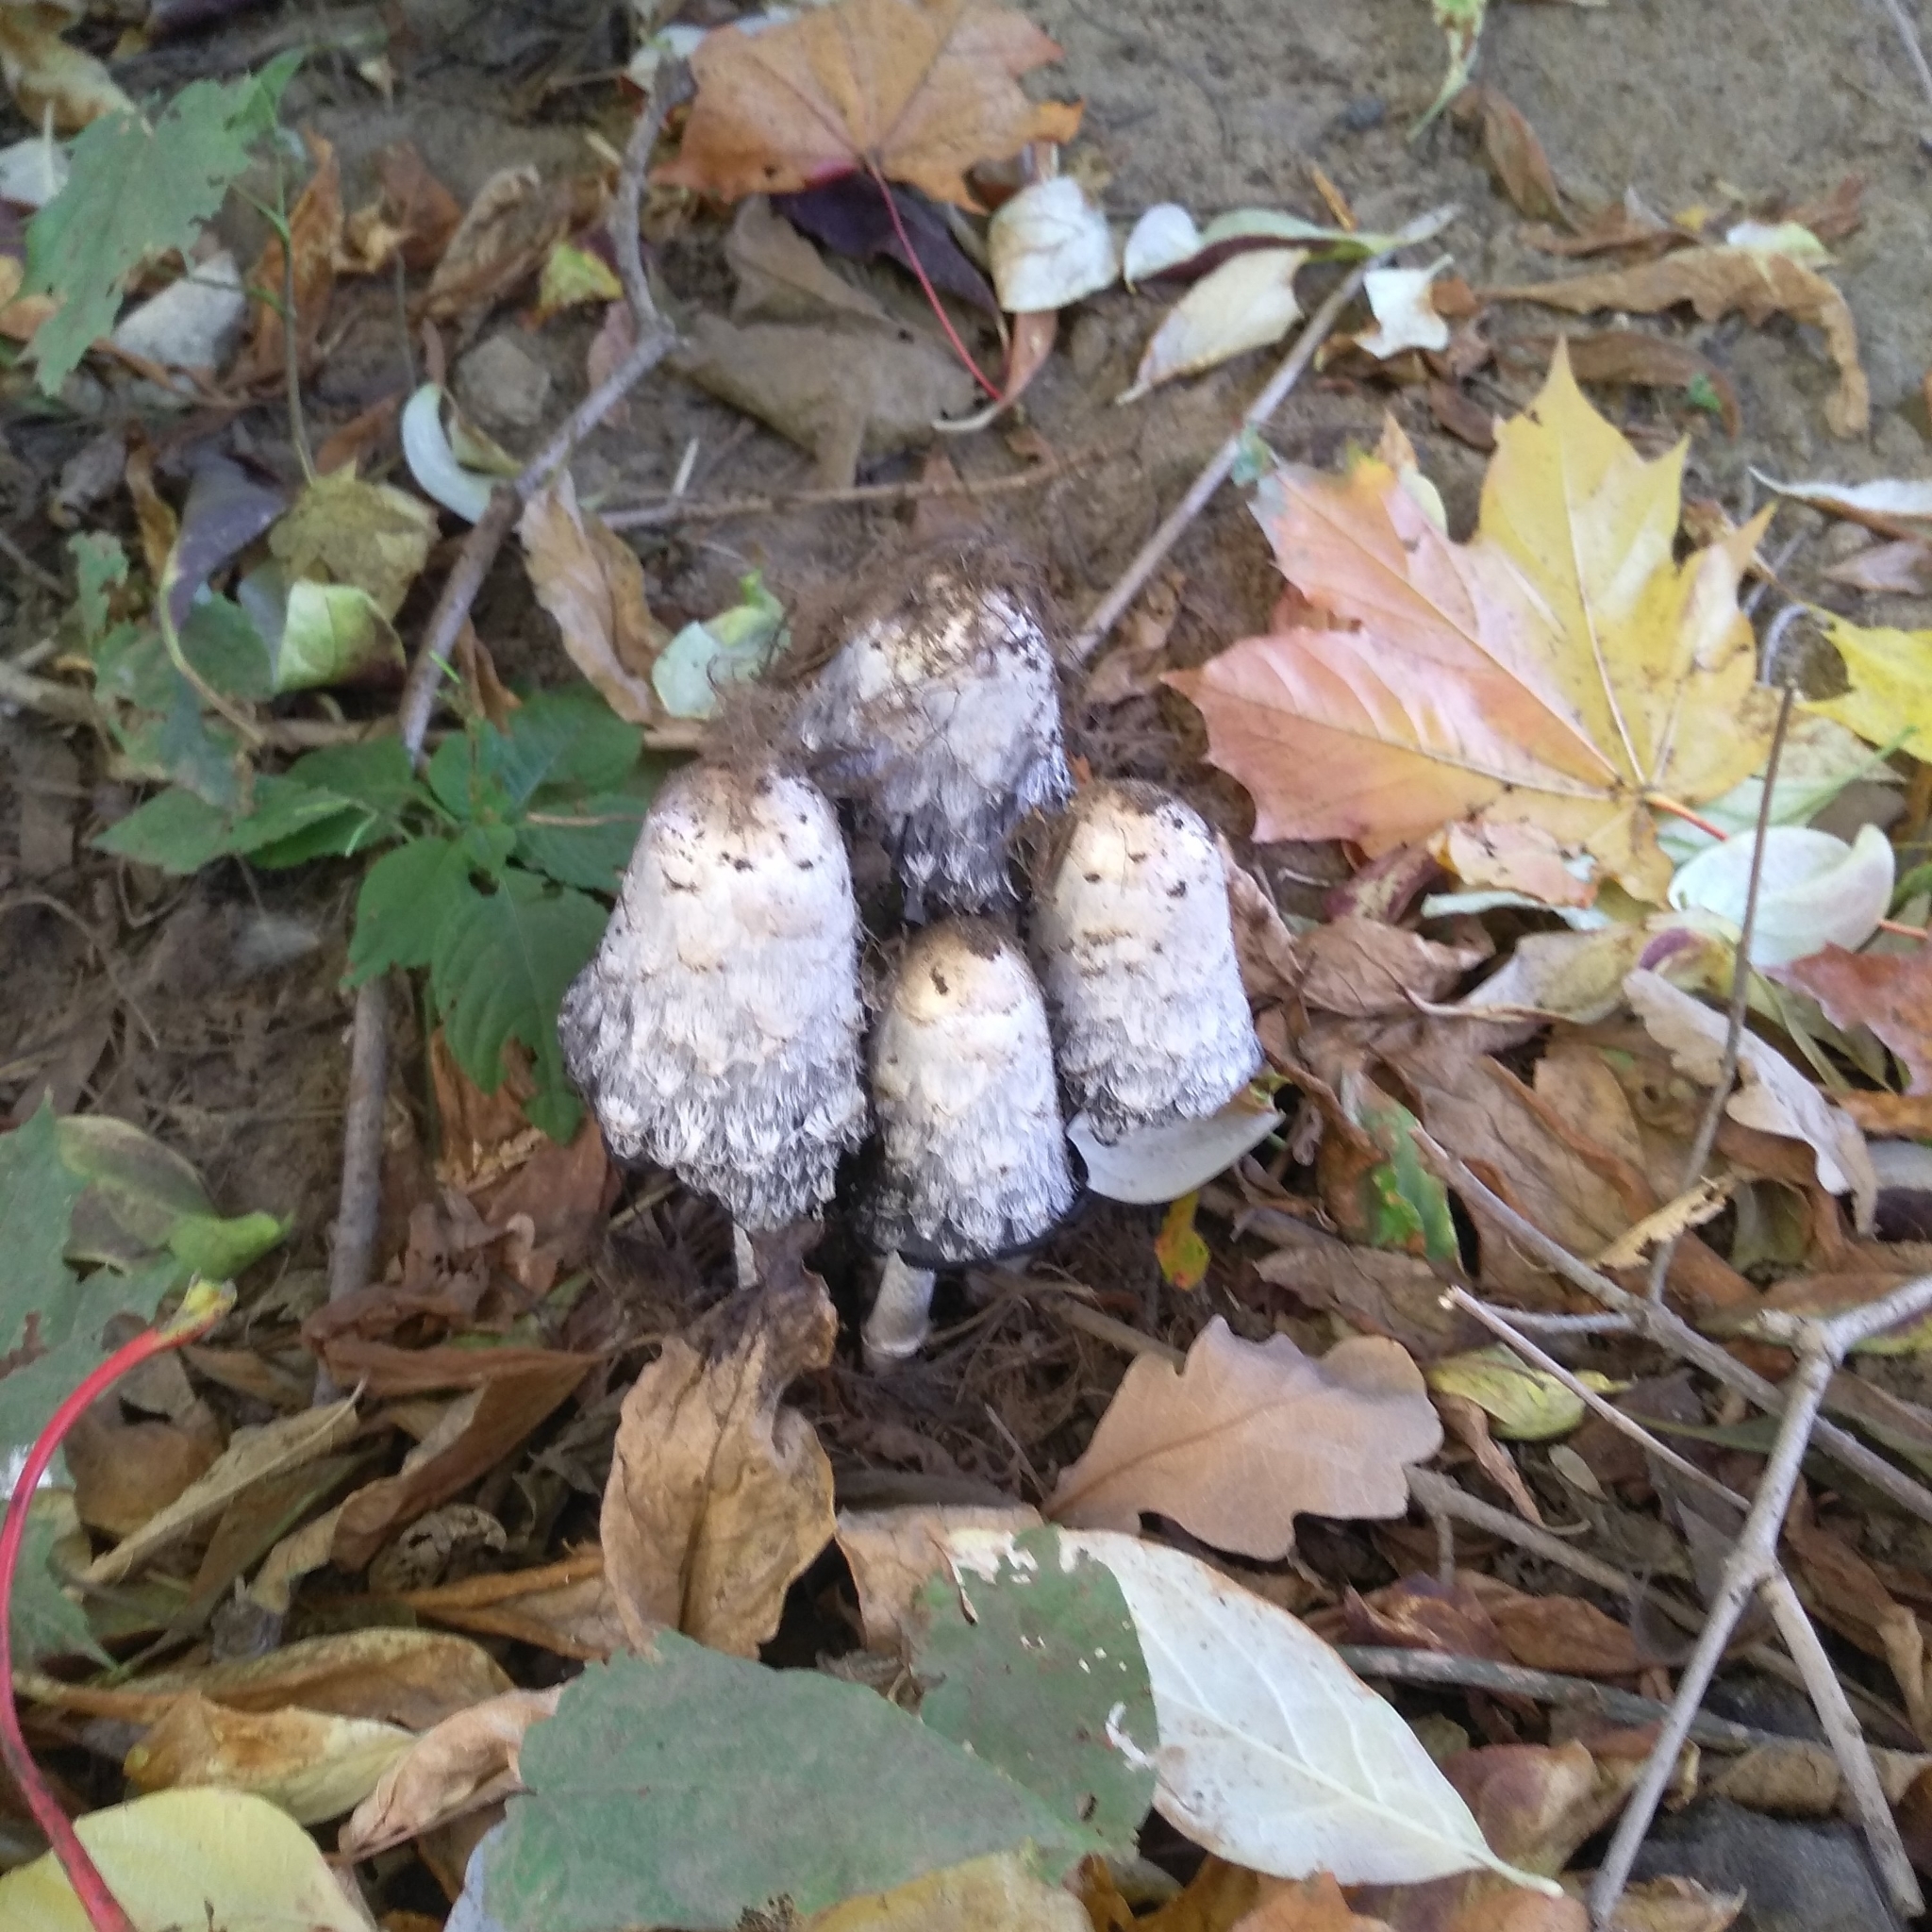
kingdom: Fungi
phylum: Basidiomycota
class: Agaricomycetes
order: Agaricales
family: Agaricaceae
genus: Coprinus
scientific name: Coprinus comatus
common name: Lawyer's wig
